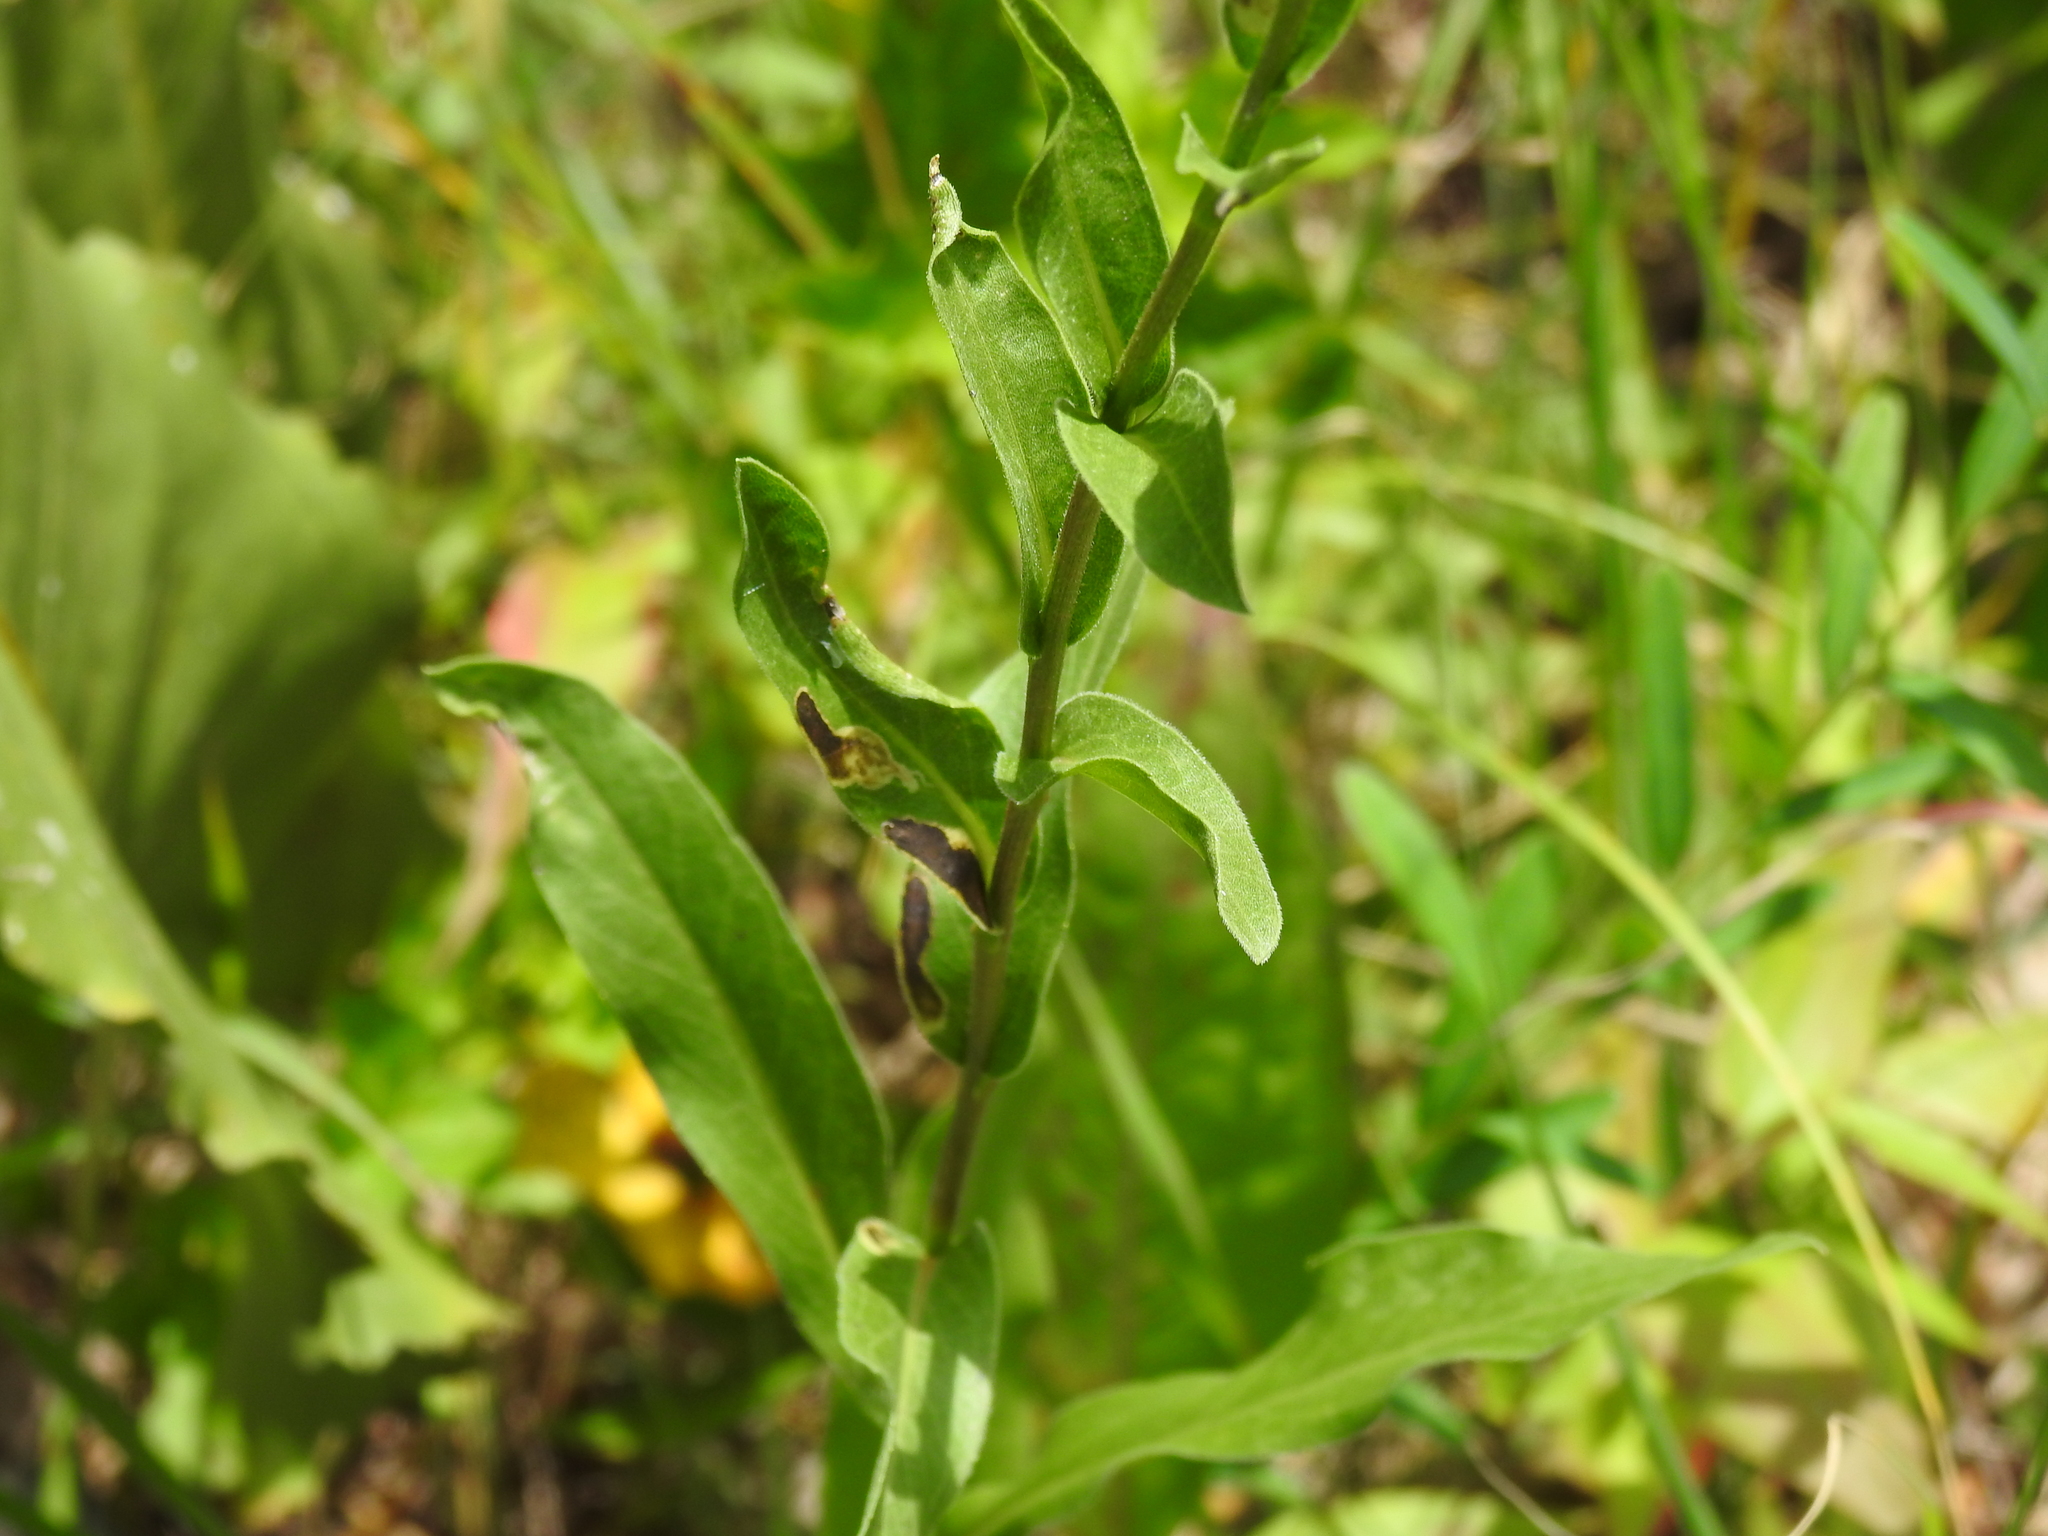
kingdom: Animalia
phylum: Arthropoda
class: Insecta
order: Diptera
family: Agromyzidae
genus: Calycomyza
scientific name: Calycomyza solidaginis
